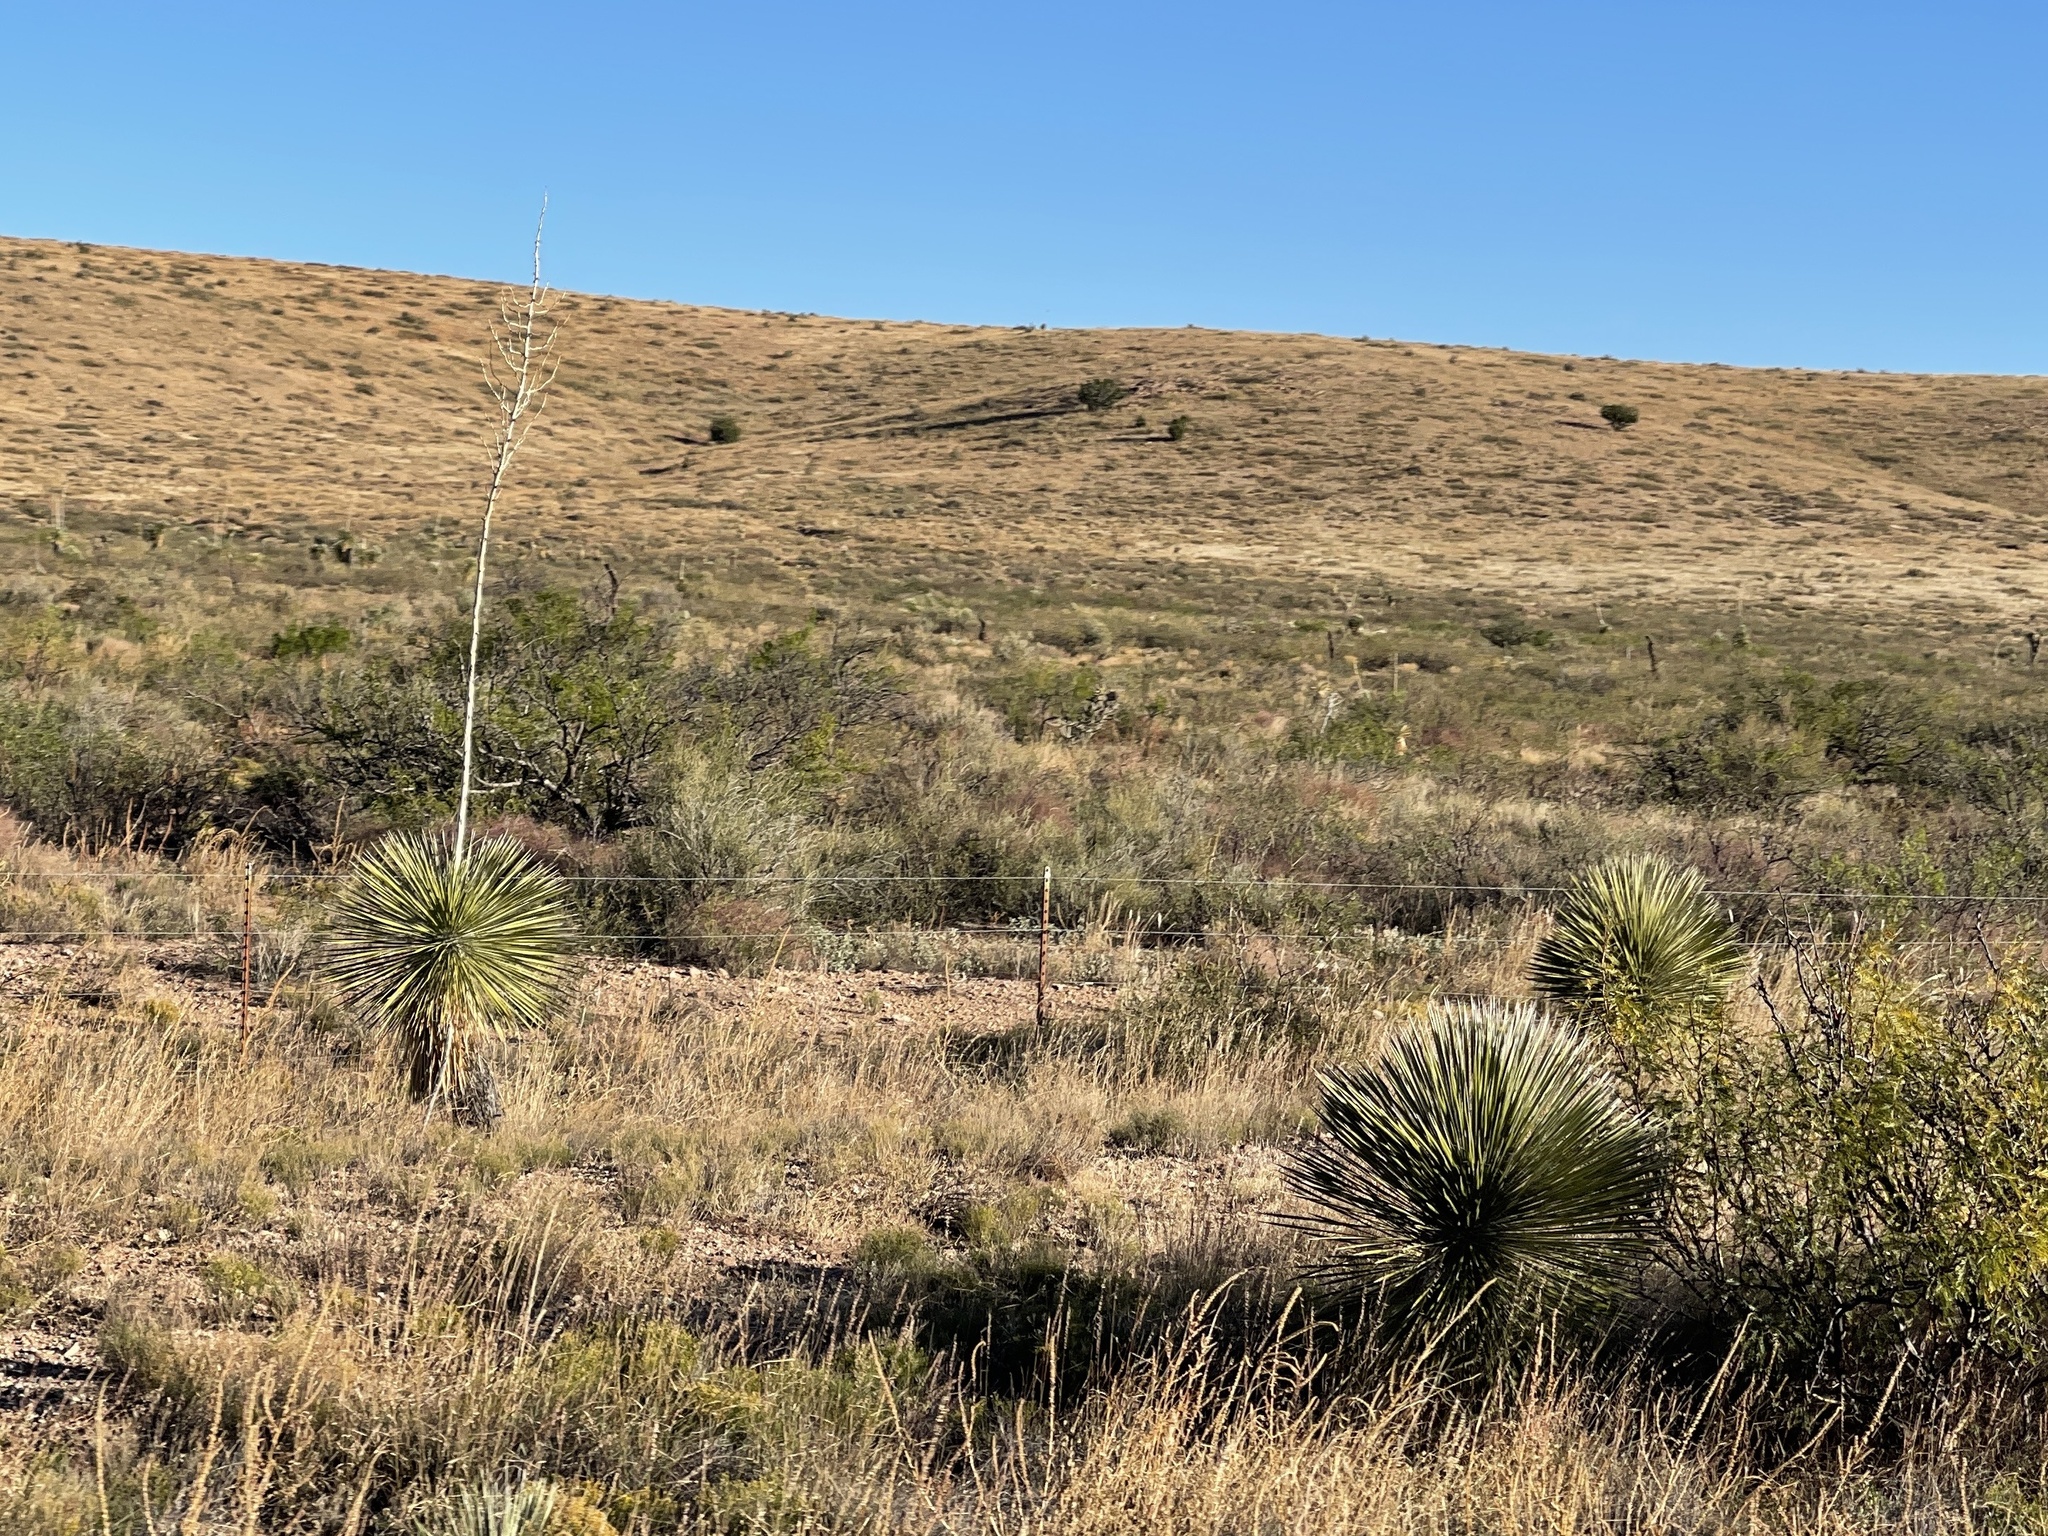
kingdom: Plantae
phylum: Tracheophyta
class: Liliopsida
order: Asparagales
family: Asparagaceae
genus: Yucca
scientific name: Yucca elata
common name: Palmella
